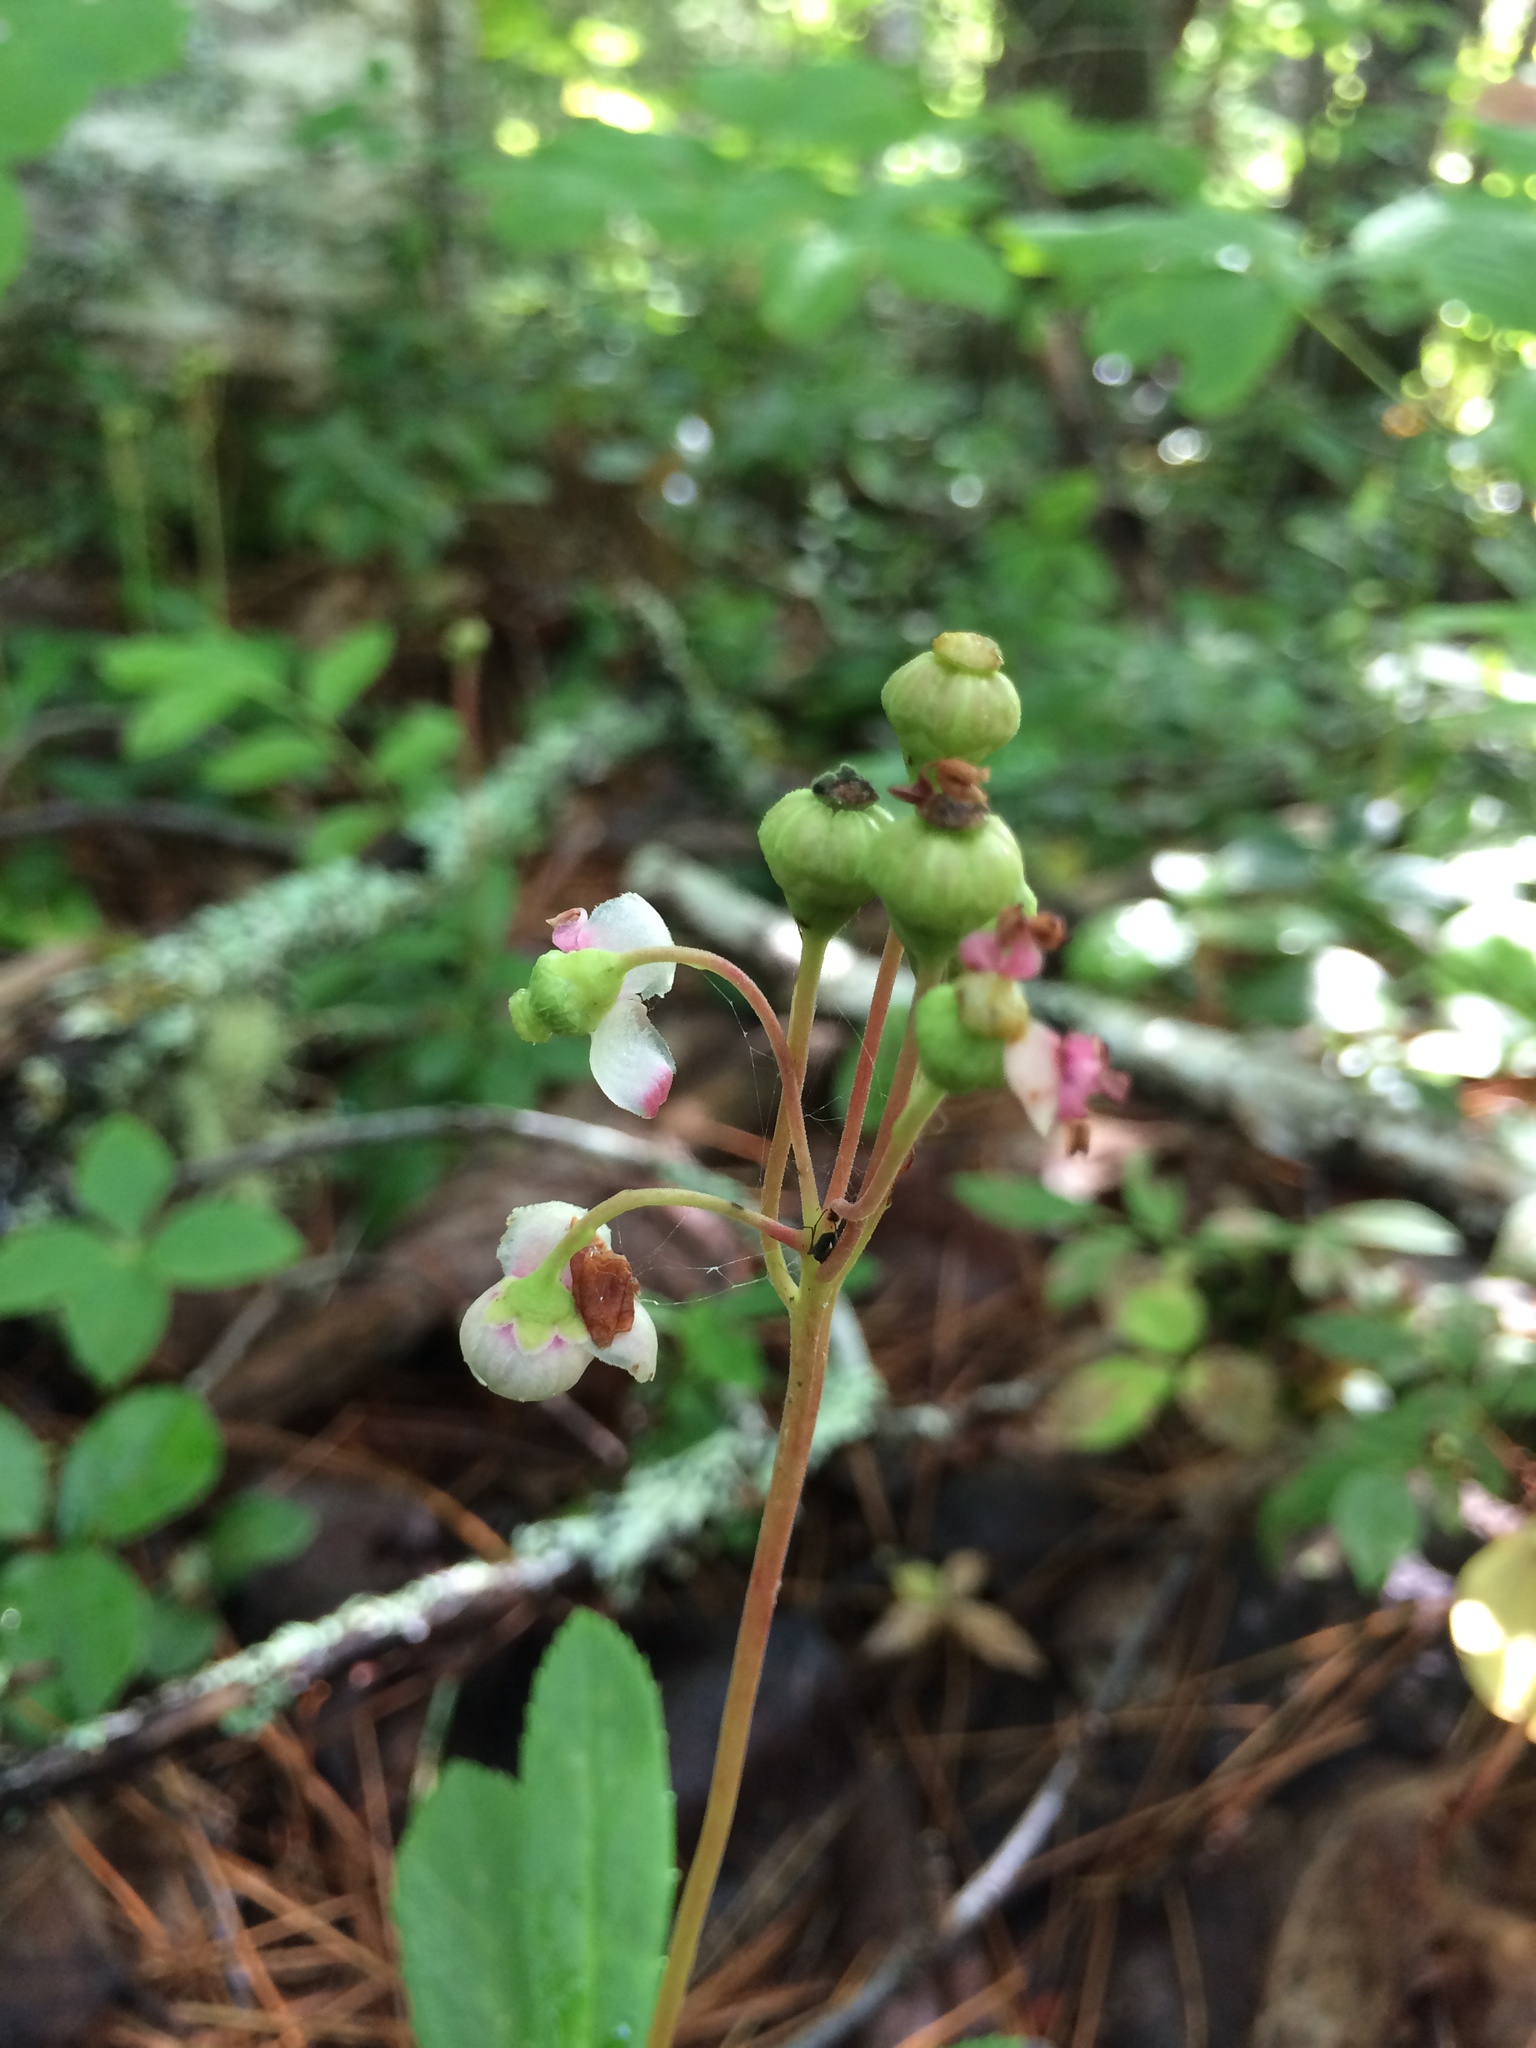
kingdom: Plantae
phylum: Tracheophyta
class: Magnoliopsida
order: Ericales
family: Ericaceae
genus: Chimaphila
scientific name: Chimaphila umbellata
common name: Pipsissewa
